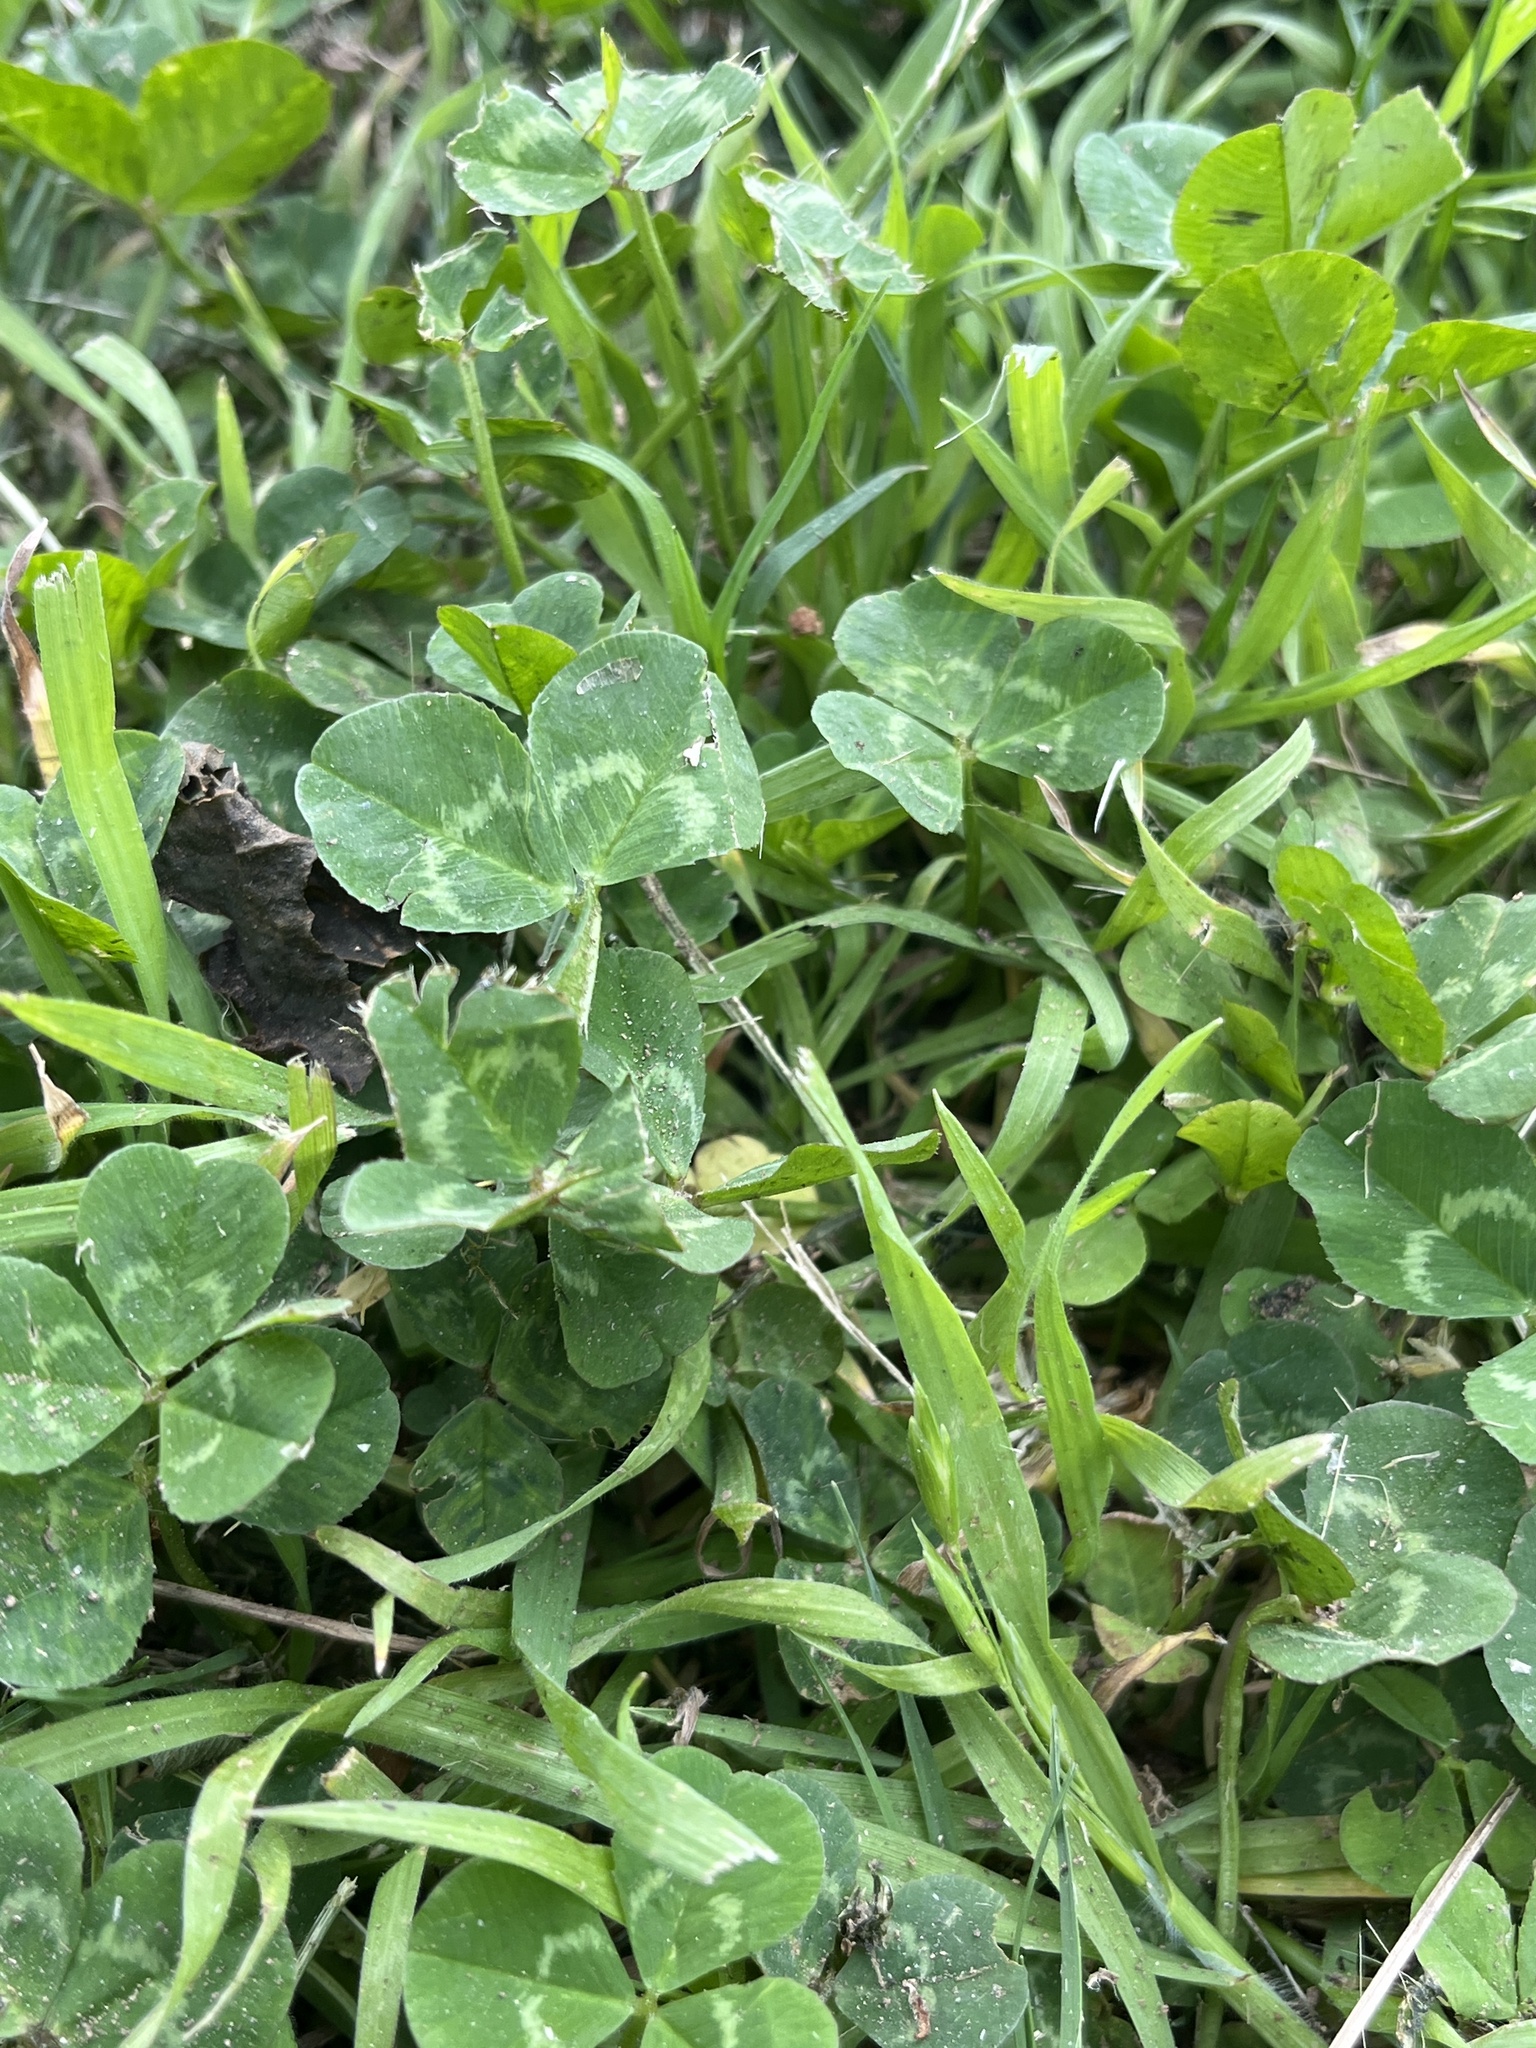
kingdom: Plantae
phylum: Tracheophyta
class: Magnoliopsida
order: Fabales
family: Fabaceae
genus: Trifolium
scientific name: Trifolium repens
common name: White clover
